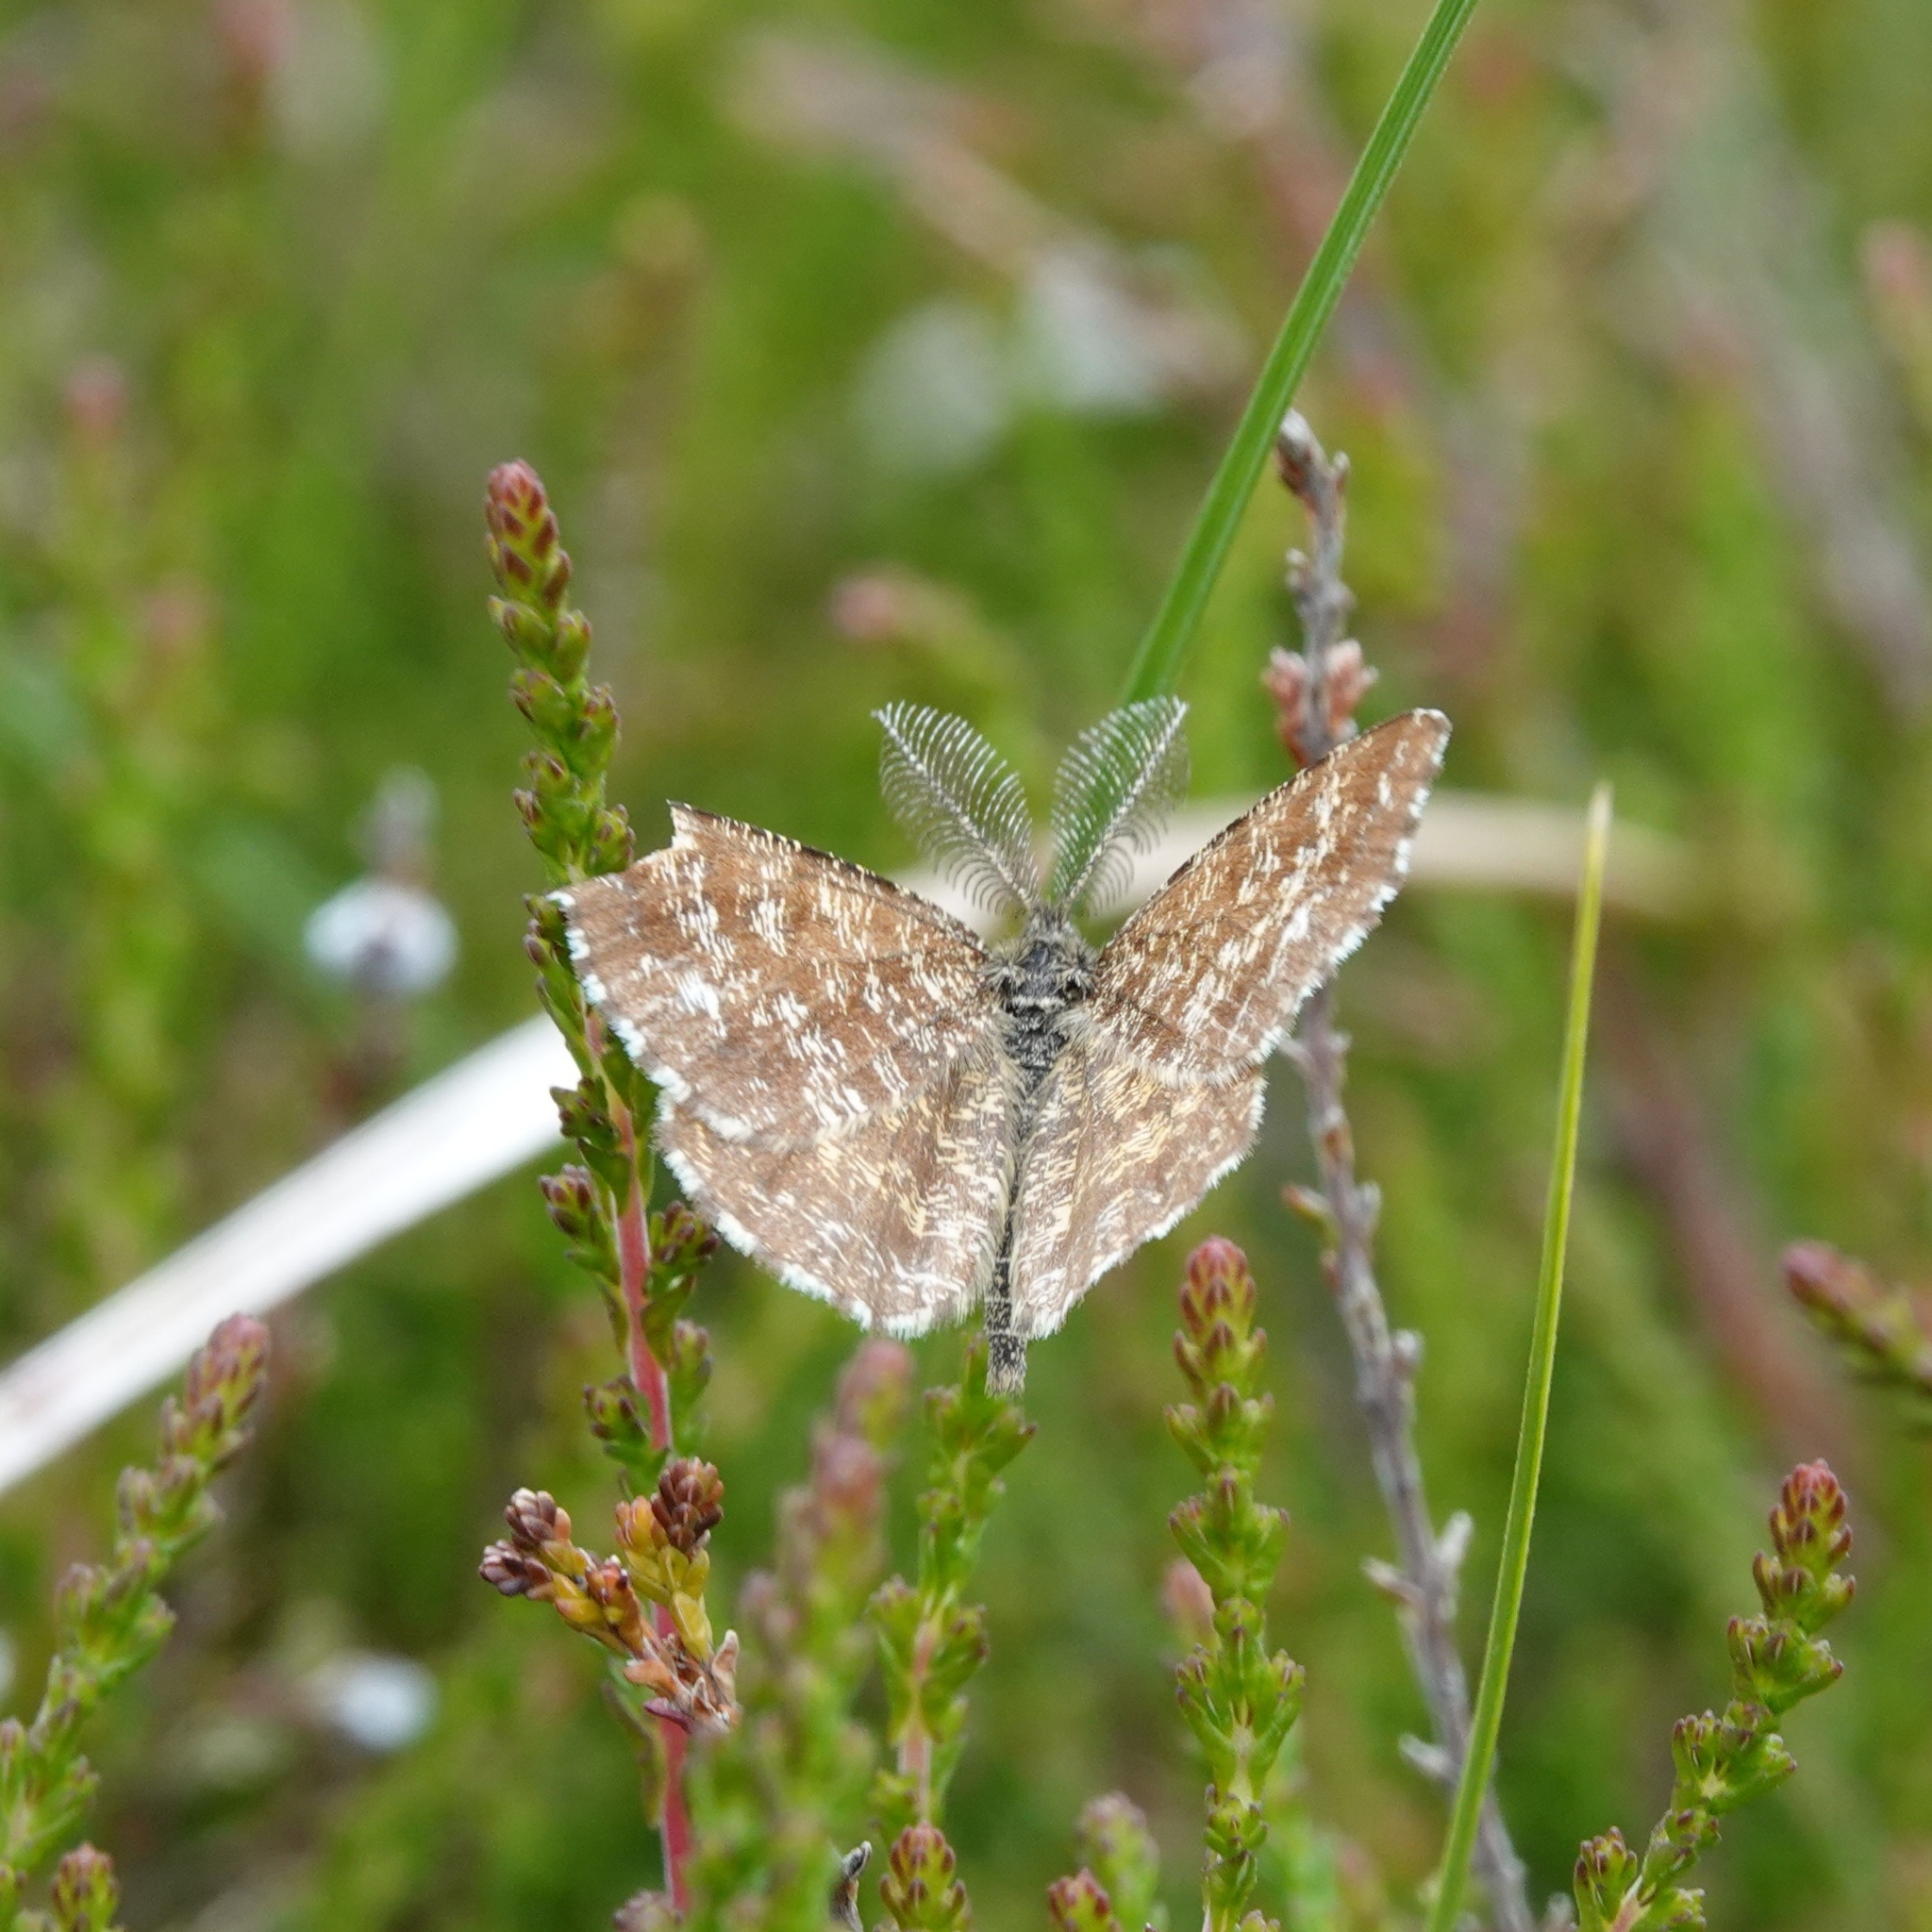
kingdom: Animalia
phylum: Arthropoda
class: Insecta
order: Lepidoptera
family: Geometridae
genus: Ematurga
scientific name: Ematurga atomaria
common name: Common heath
